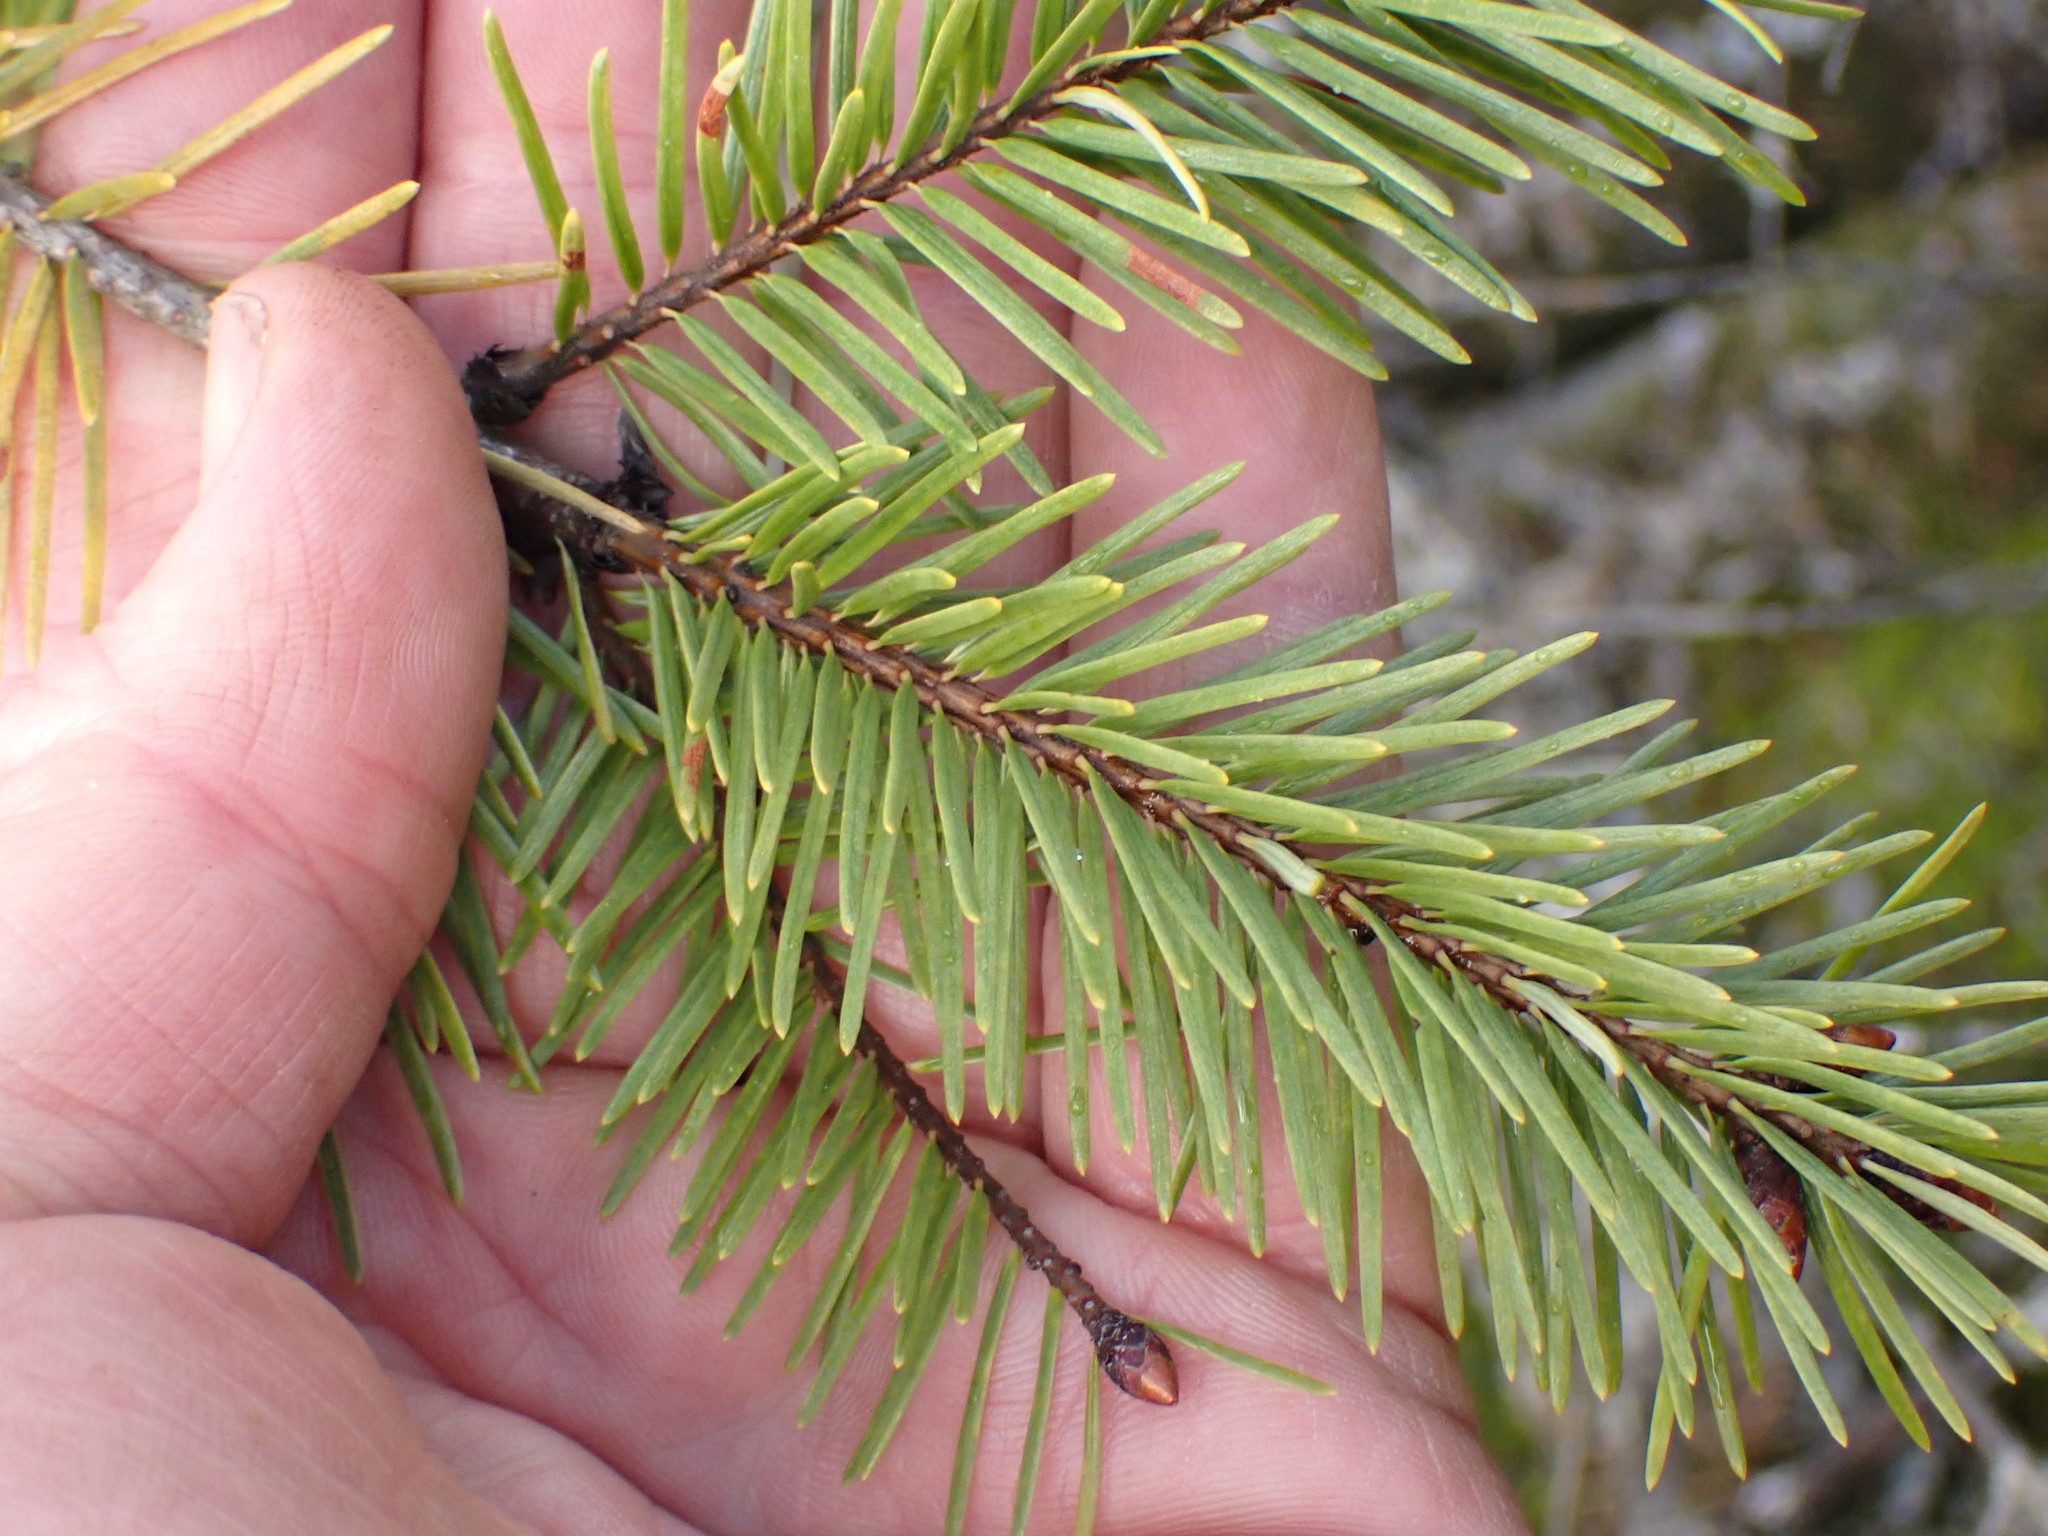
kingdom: Plantae
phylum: Tracheophyta
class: Pinopsida
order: Pinales
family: Pinaceae
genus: Pseudotsuga
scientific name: Pseudotsuga menziesii
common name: Douglas fir
